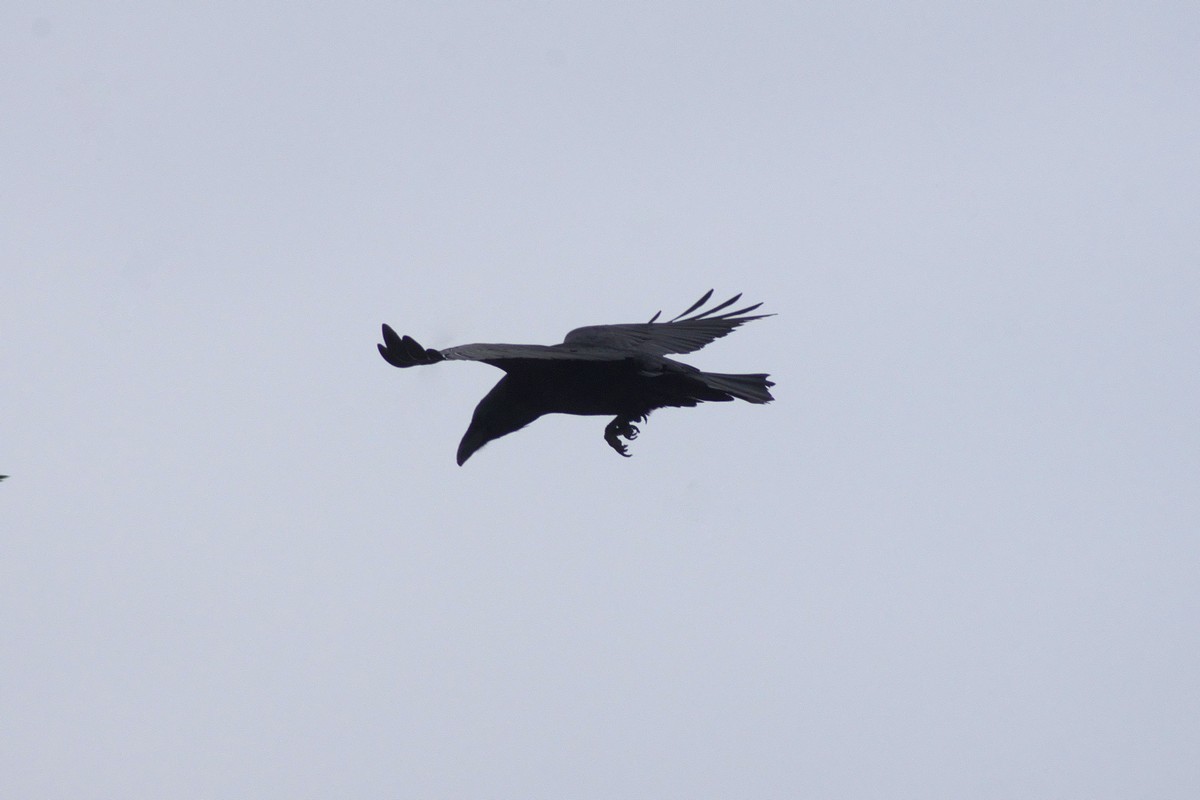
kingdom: Animalia
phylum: Chordata
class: Aves
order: Passeriformes
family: Corvidae
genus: Corvus
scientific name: Corvus corax
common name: Common raven
